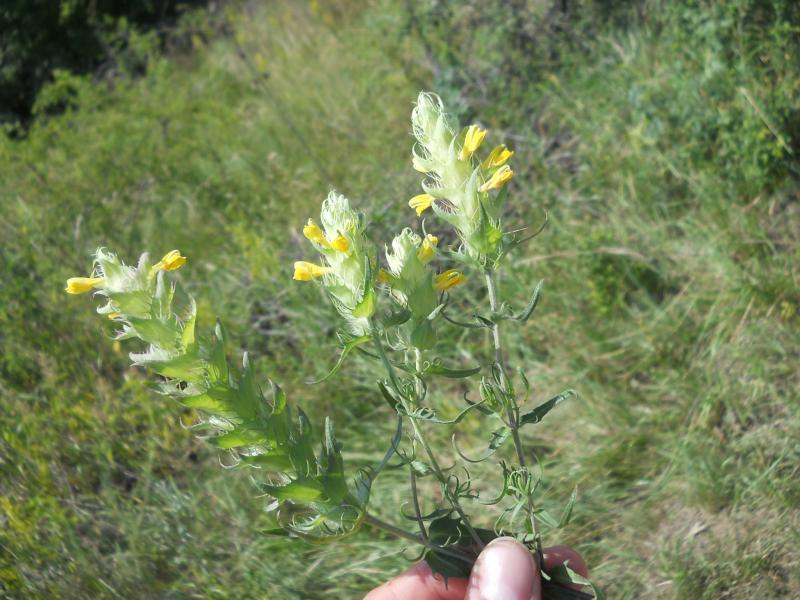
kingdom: Plantae
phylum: Tracheophyta
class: Magnoliopsida
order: Lamiales
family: Orobanchaceae
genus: Melampyrum
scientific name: Melampyrum barbatum
